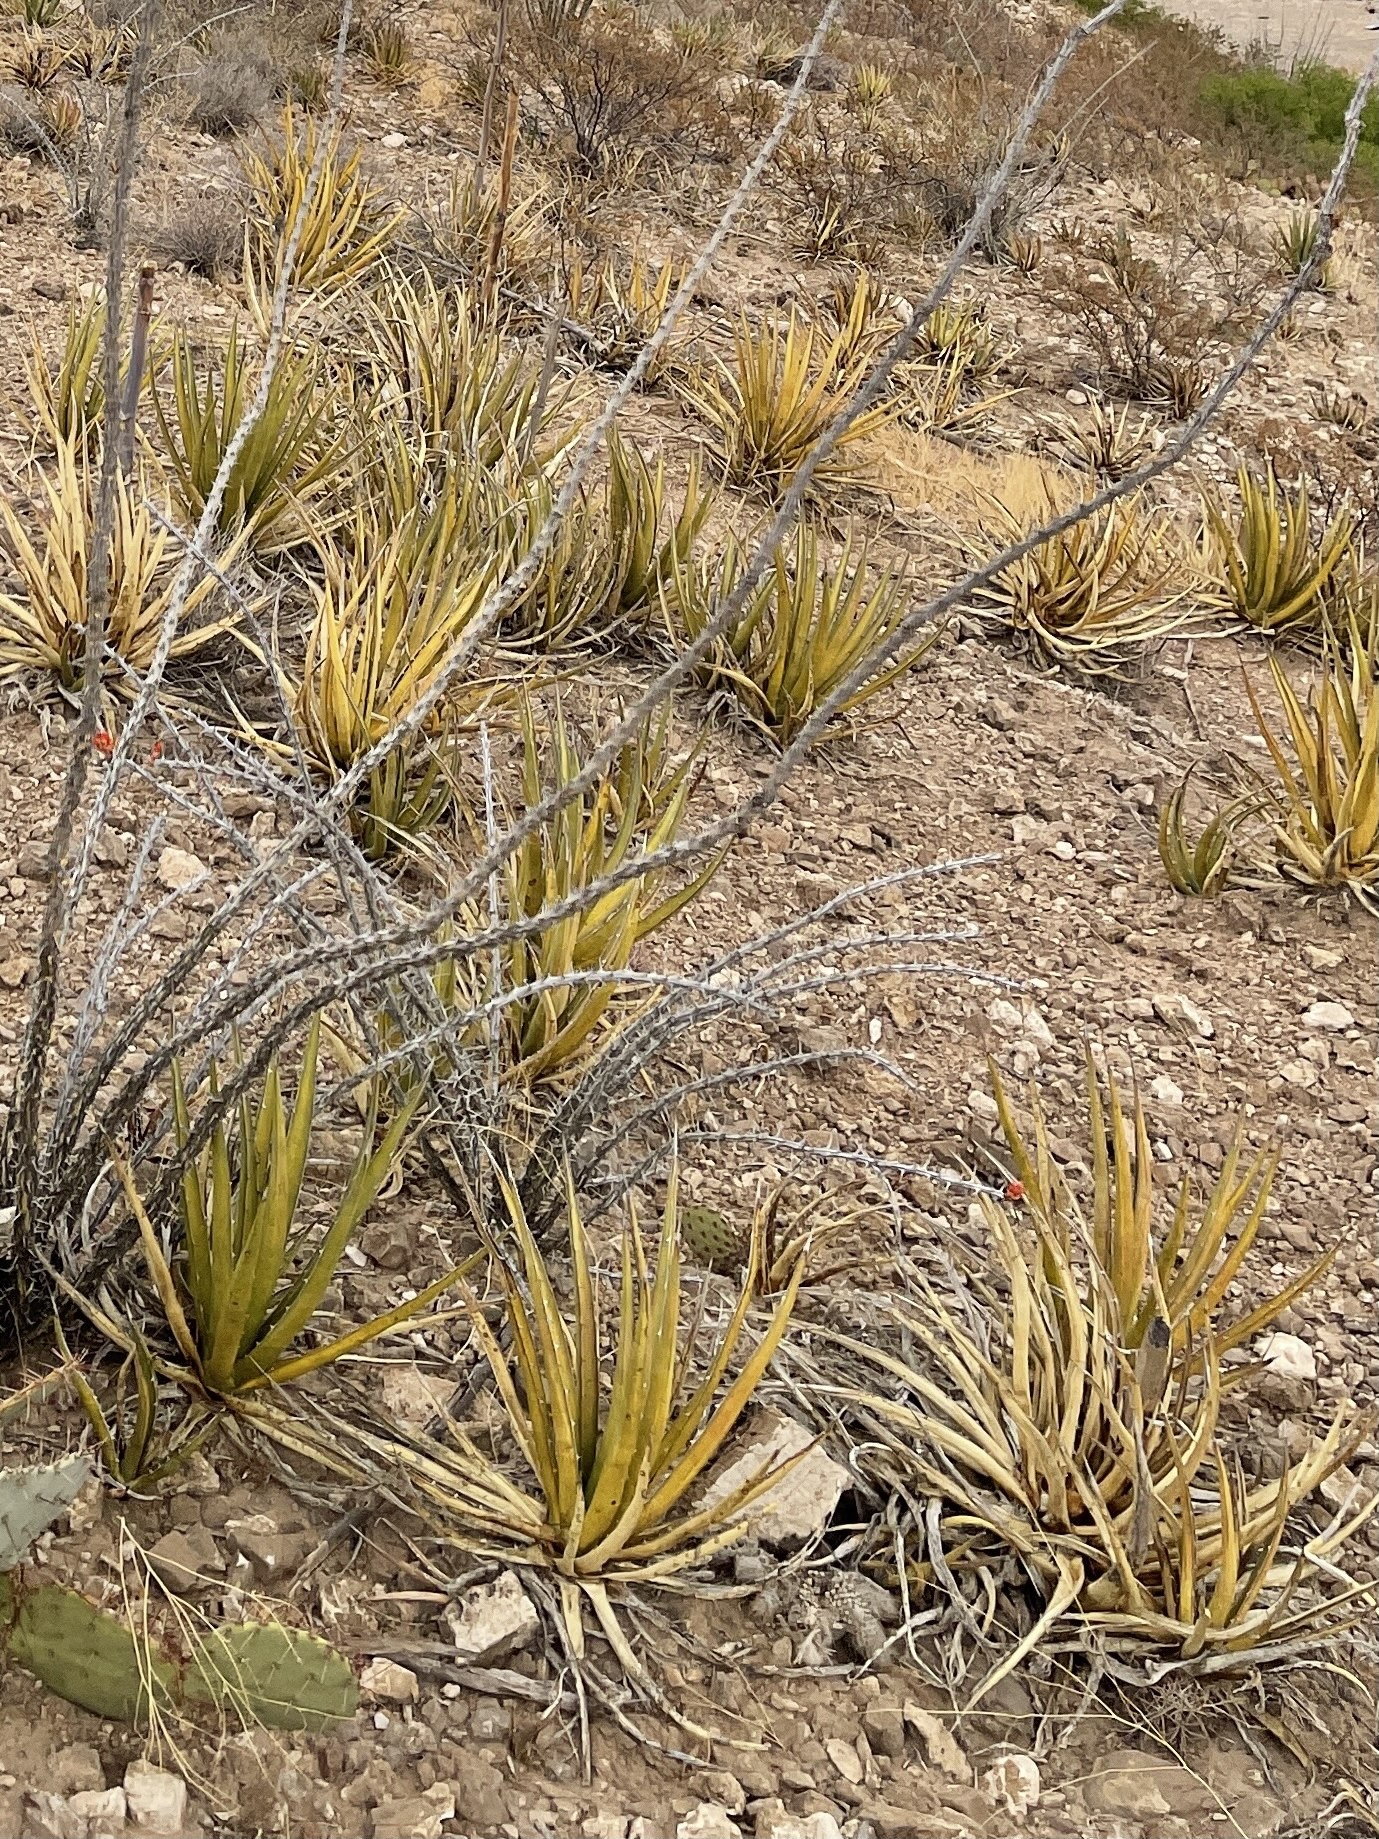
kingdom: Plantae
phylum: Tracheophyta
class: Liliopsida
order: Asparagales
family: Asparagaceae
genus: Agave
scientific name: Agave lechuguilla
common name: Lecheguilla agave
